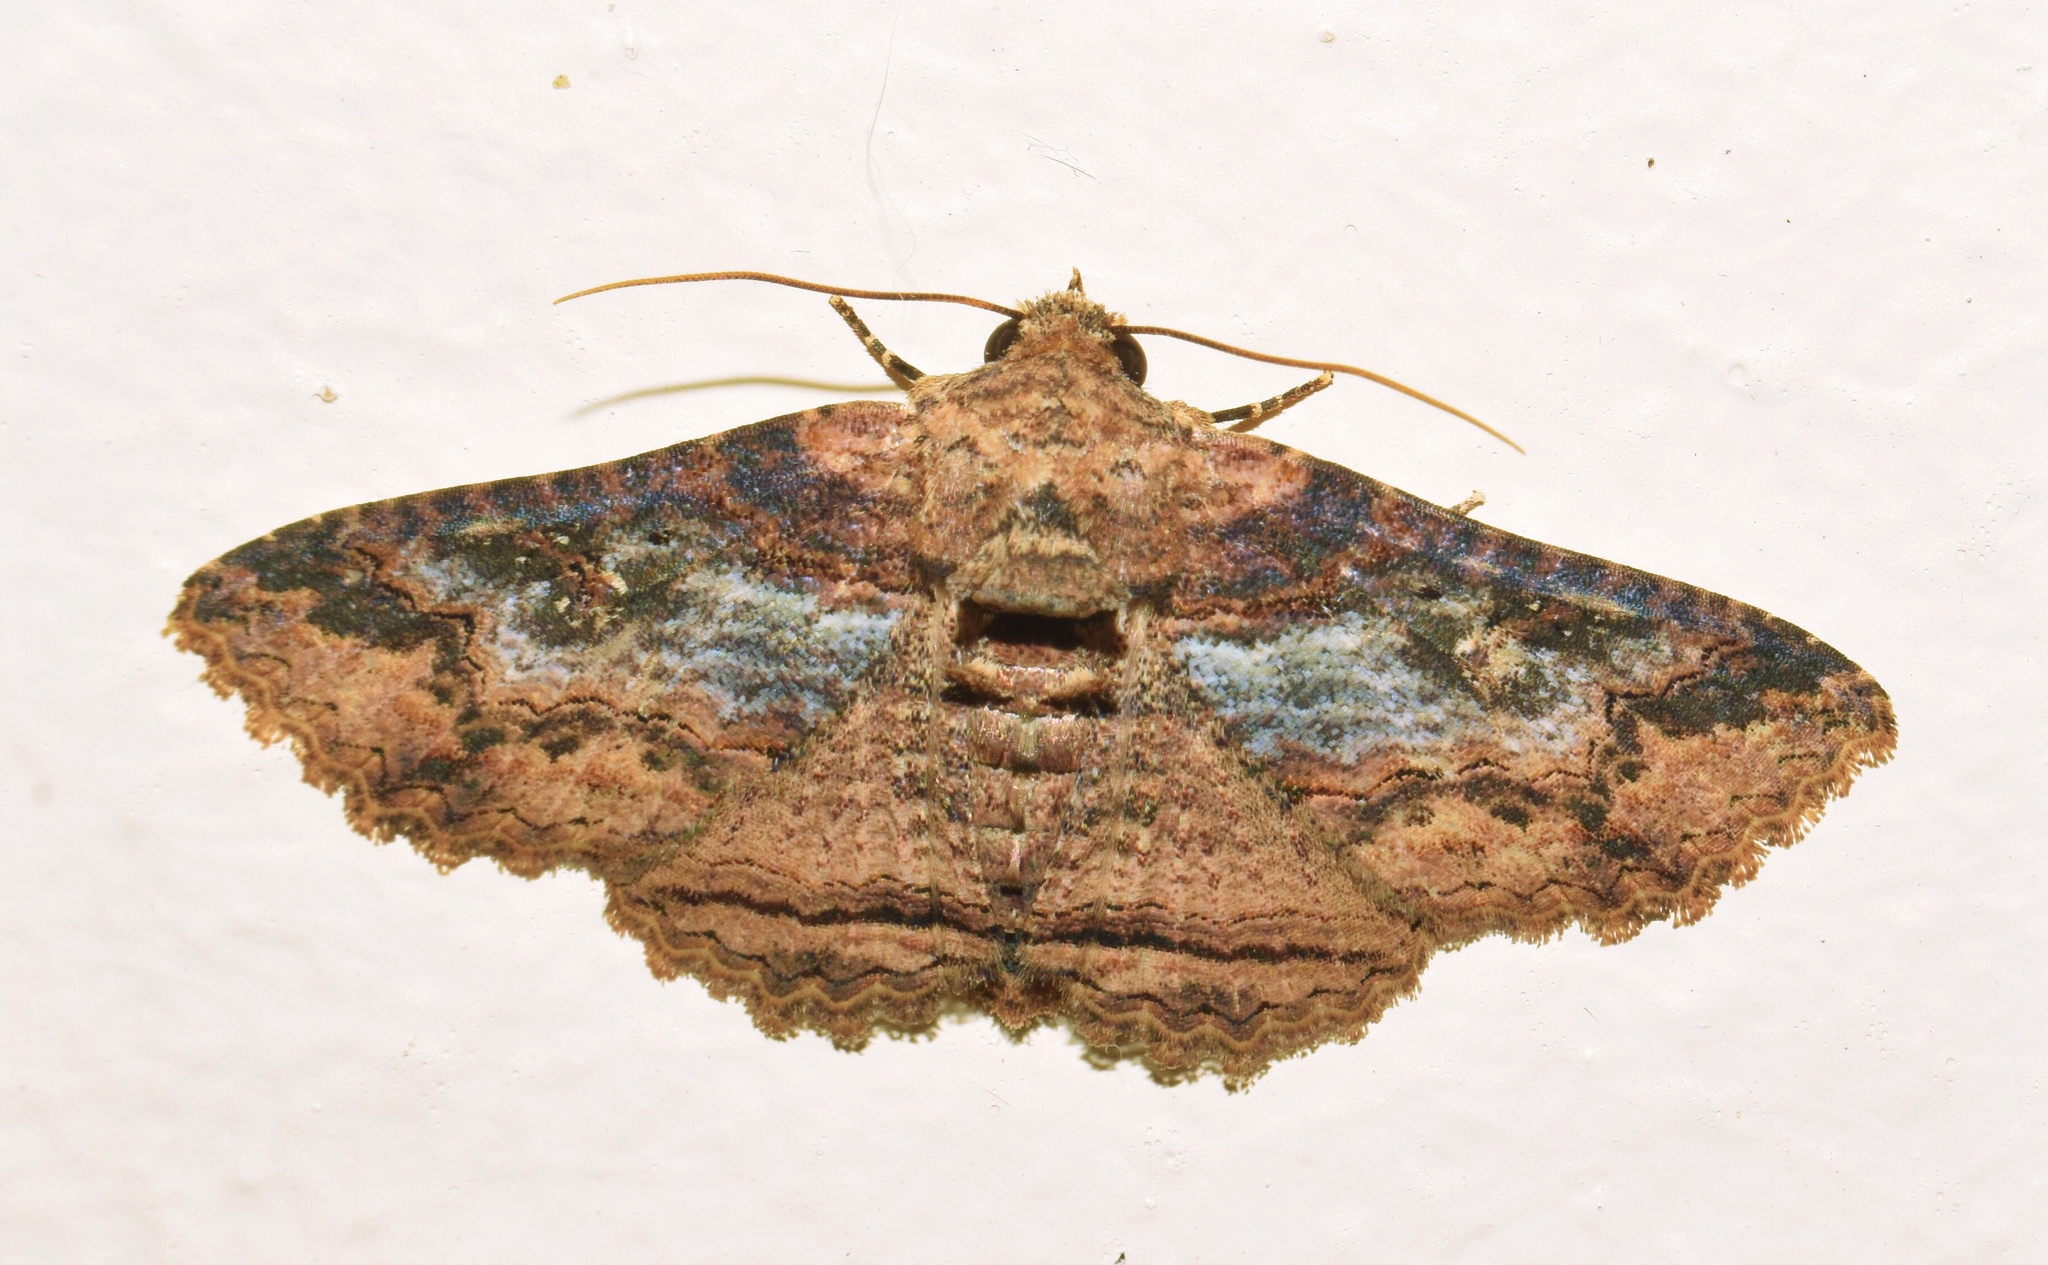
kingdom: Animalia
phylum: Arthropoda
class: Insecta
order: Lepidoptera
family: Erebidae
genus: Pericyma
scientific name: Pericyma mendax
